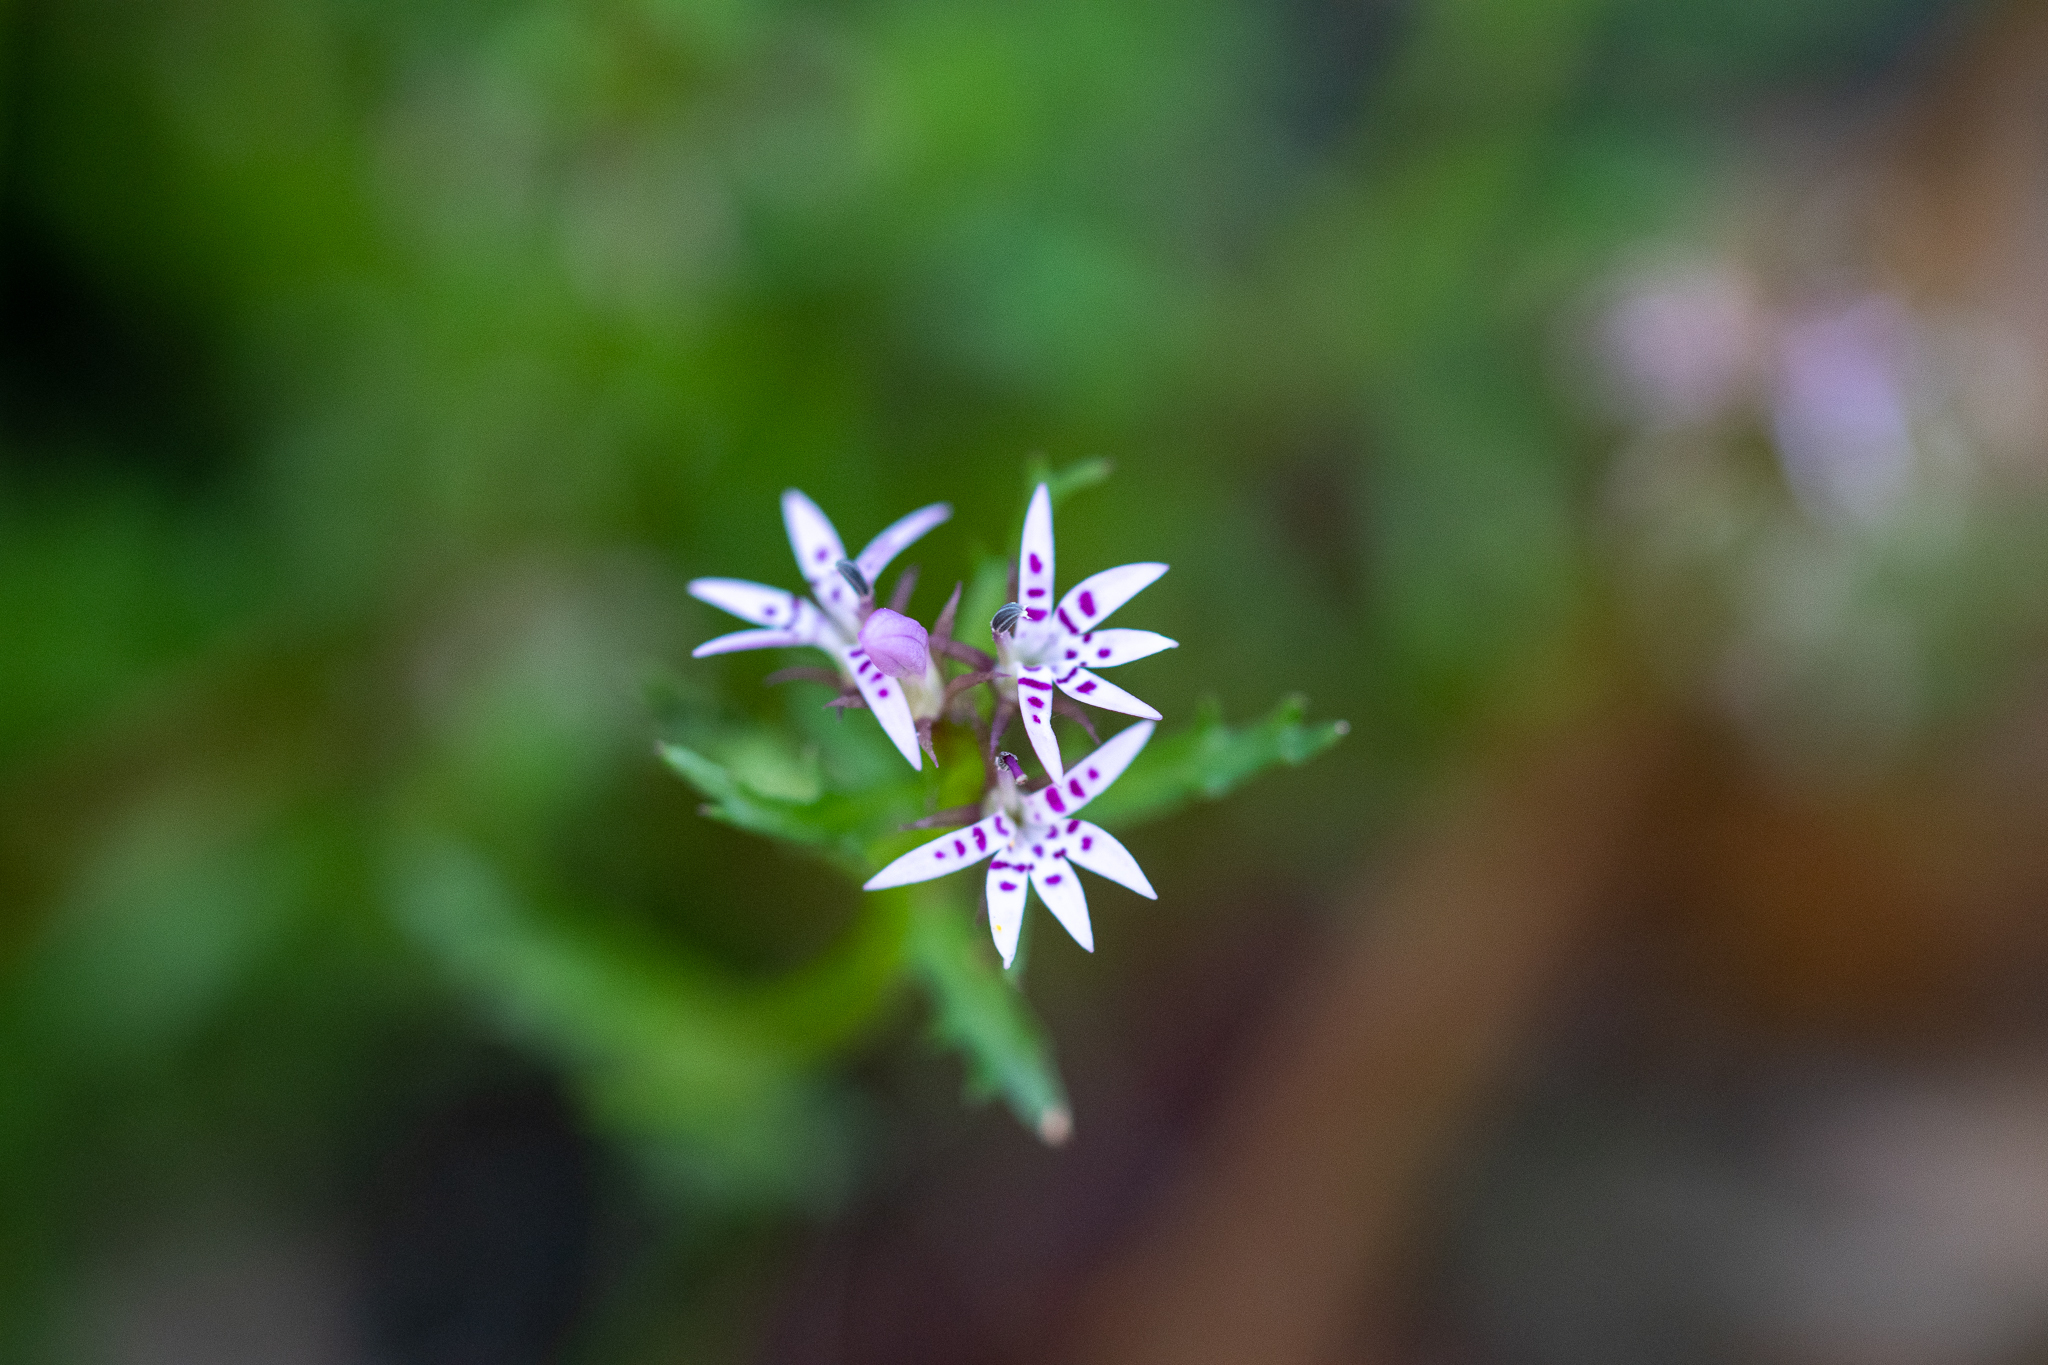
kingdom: Plantae
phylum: Tracheophyta
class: Magnoliopsida
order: Asterales
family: Campanulaceae
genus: Lobelia
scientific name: Lobelia jasionoides
